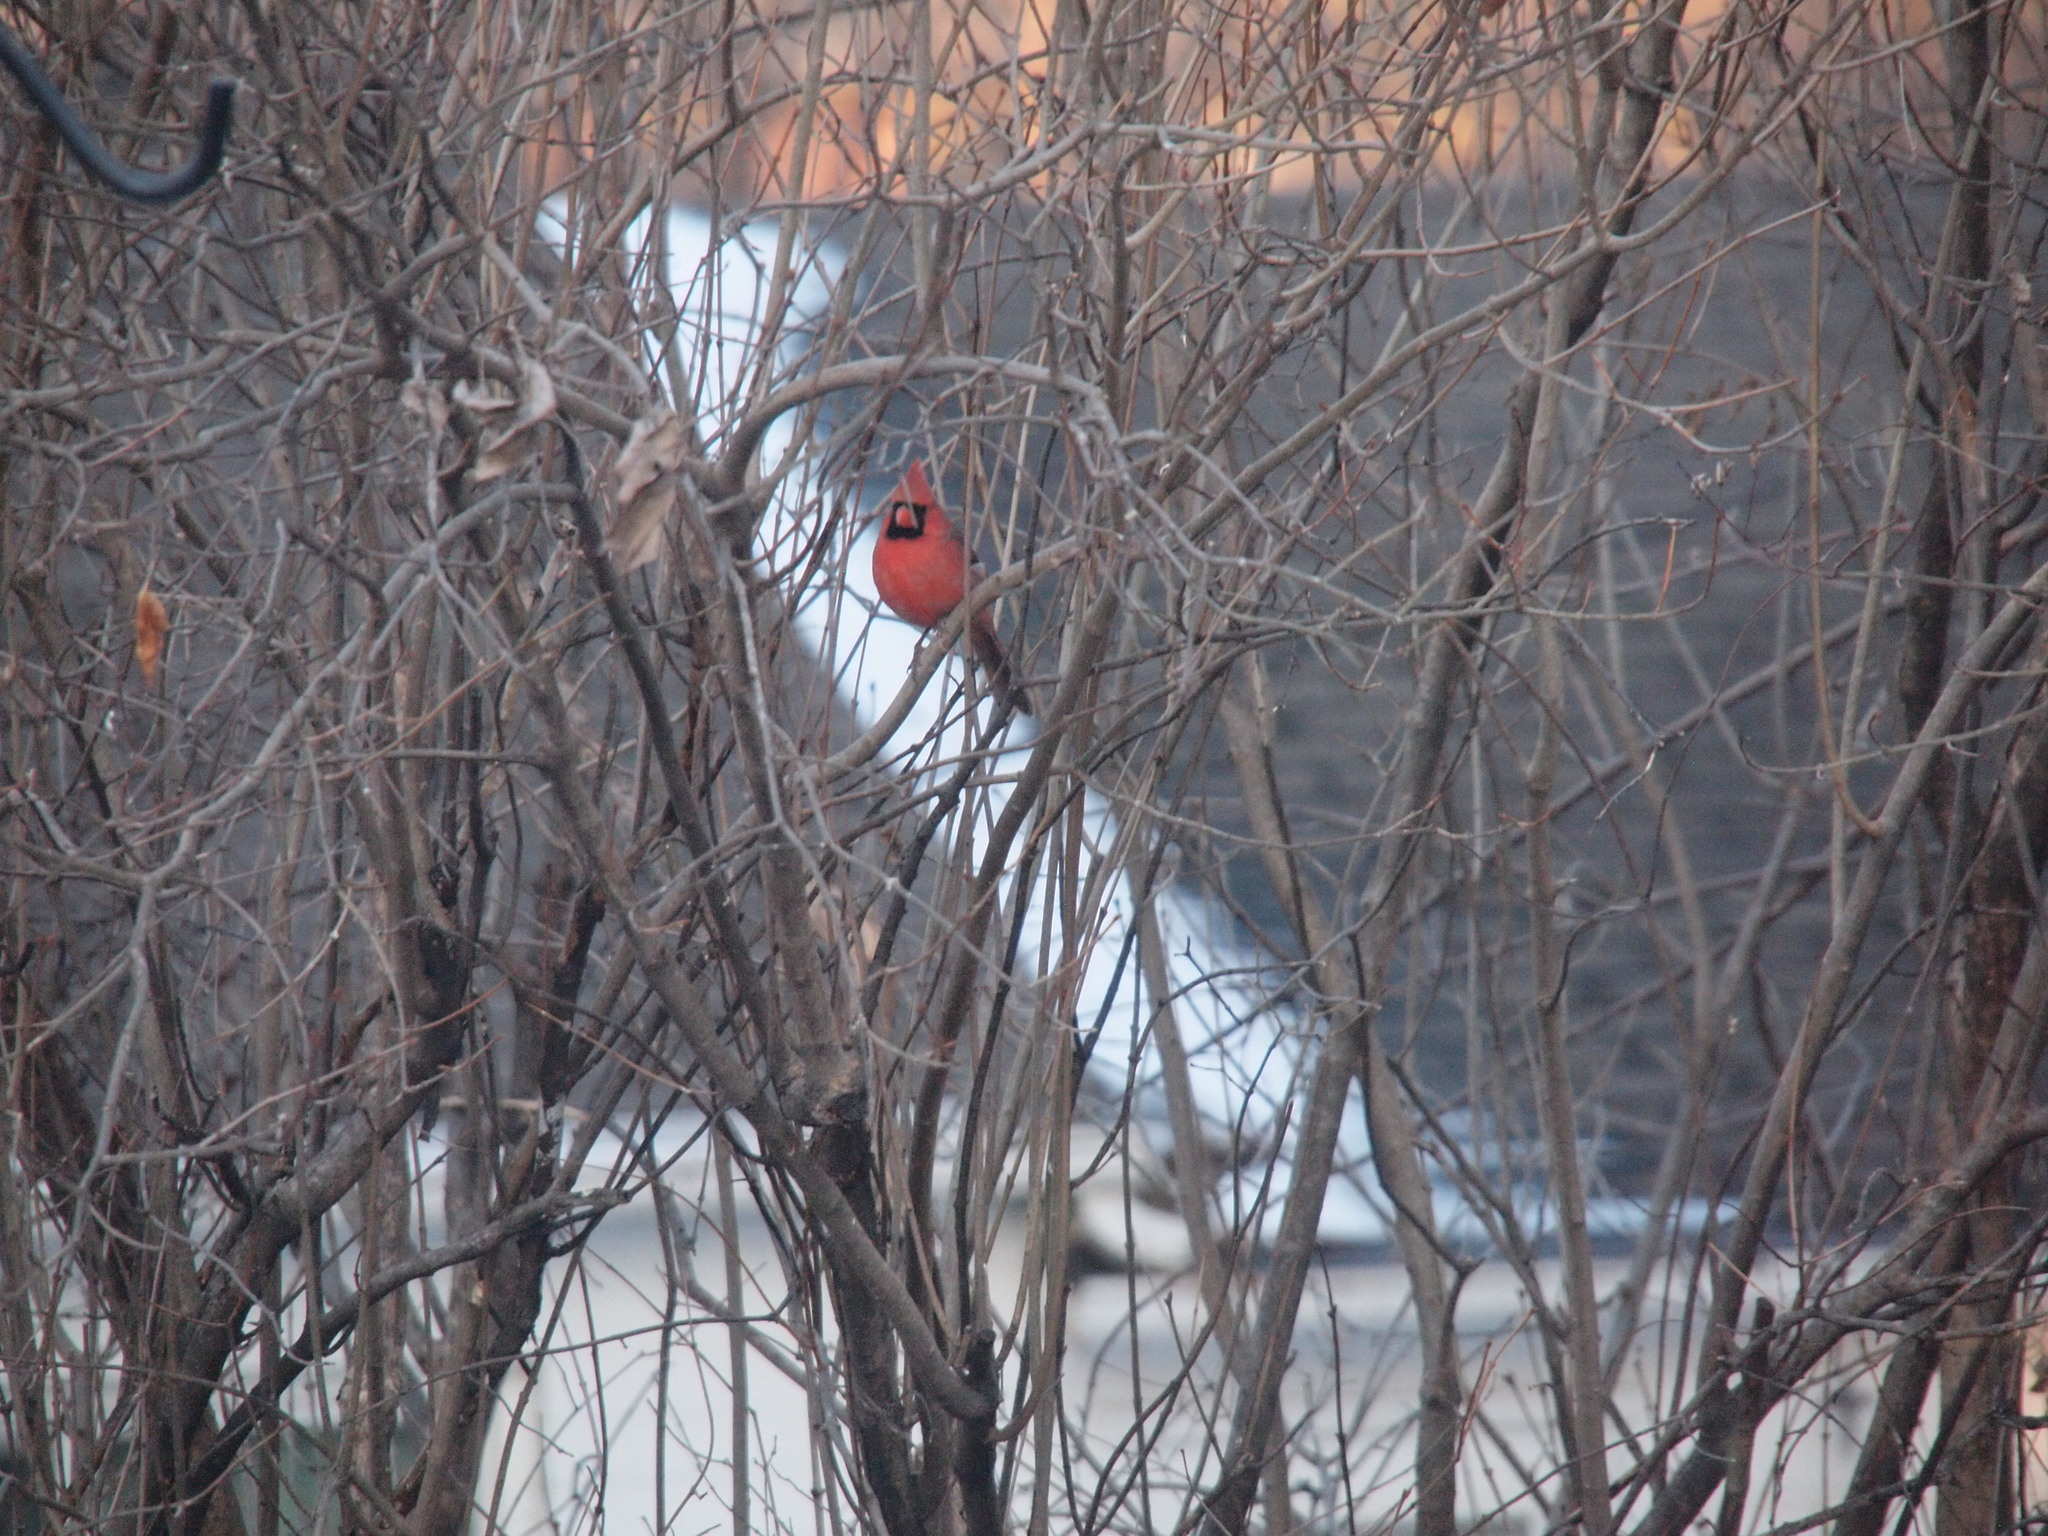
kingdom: Animalia
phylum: Chordata
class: Aves
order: Passeriformes
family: Cardinalidae
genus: Cardinalis
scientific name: Cardinalis cardinalis
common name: Northern cardinal
